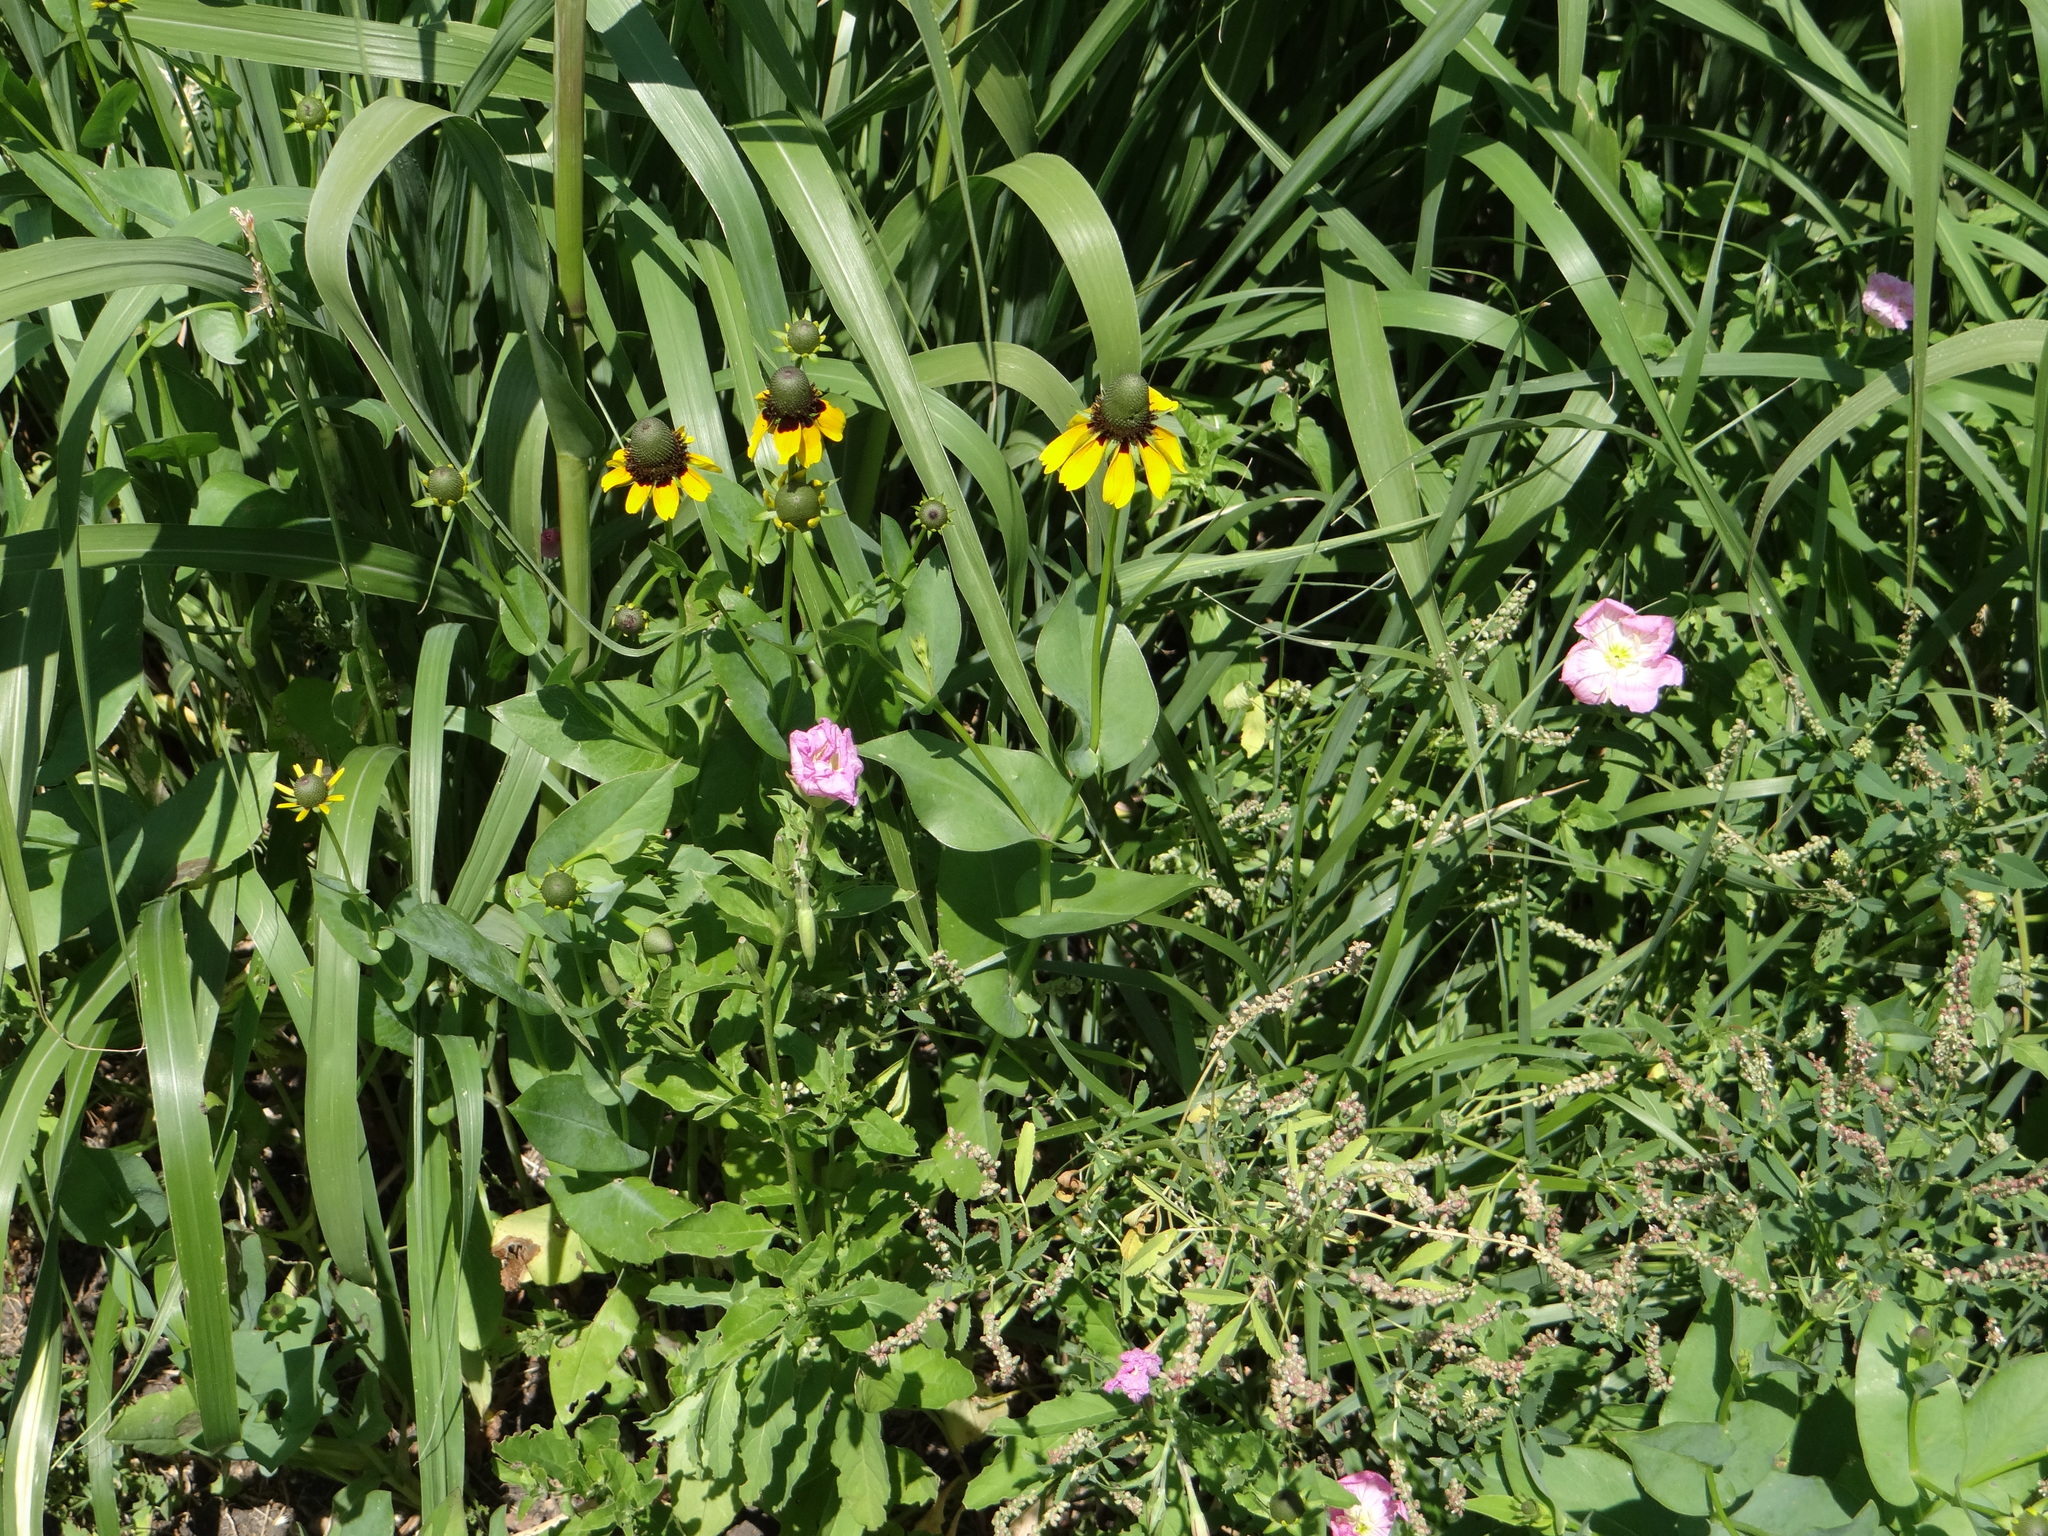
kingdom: Plantae
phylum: Tracheophyta
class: Magnoliopsida
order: Asterales
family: Asteraceae
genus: Rudbeckia
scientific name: Rudbeckia amplexicaulis
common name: Clasping-leaf coneflower
